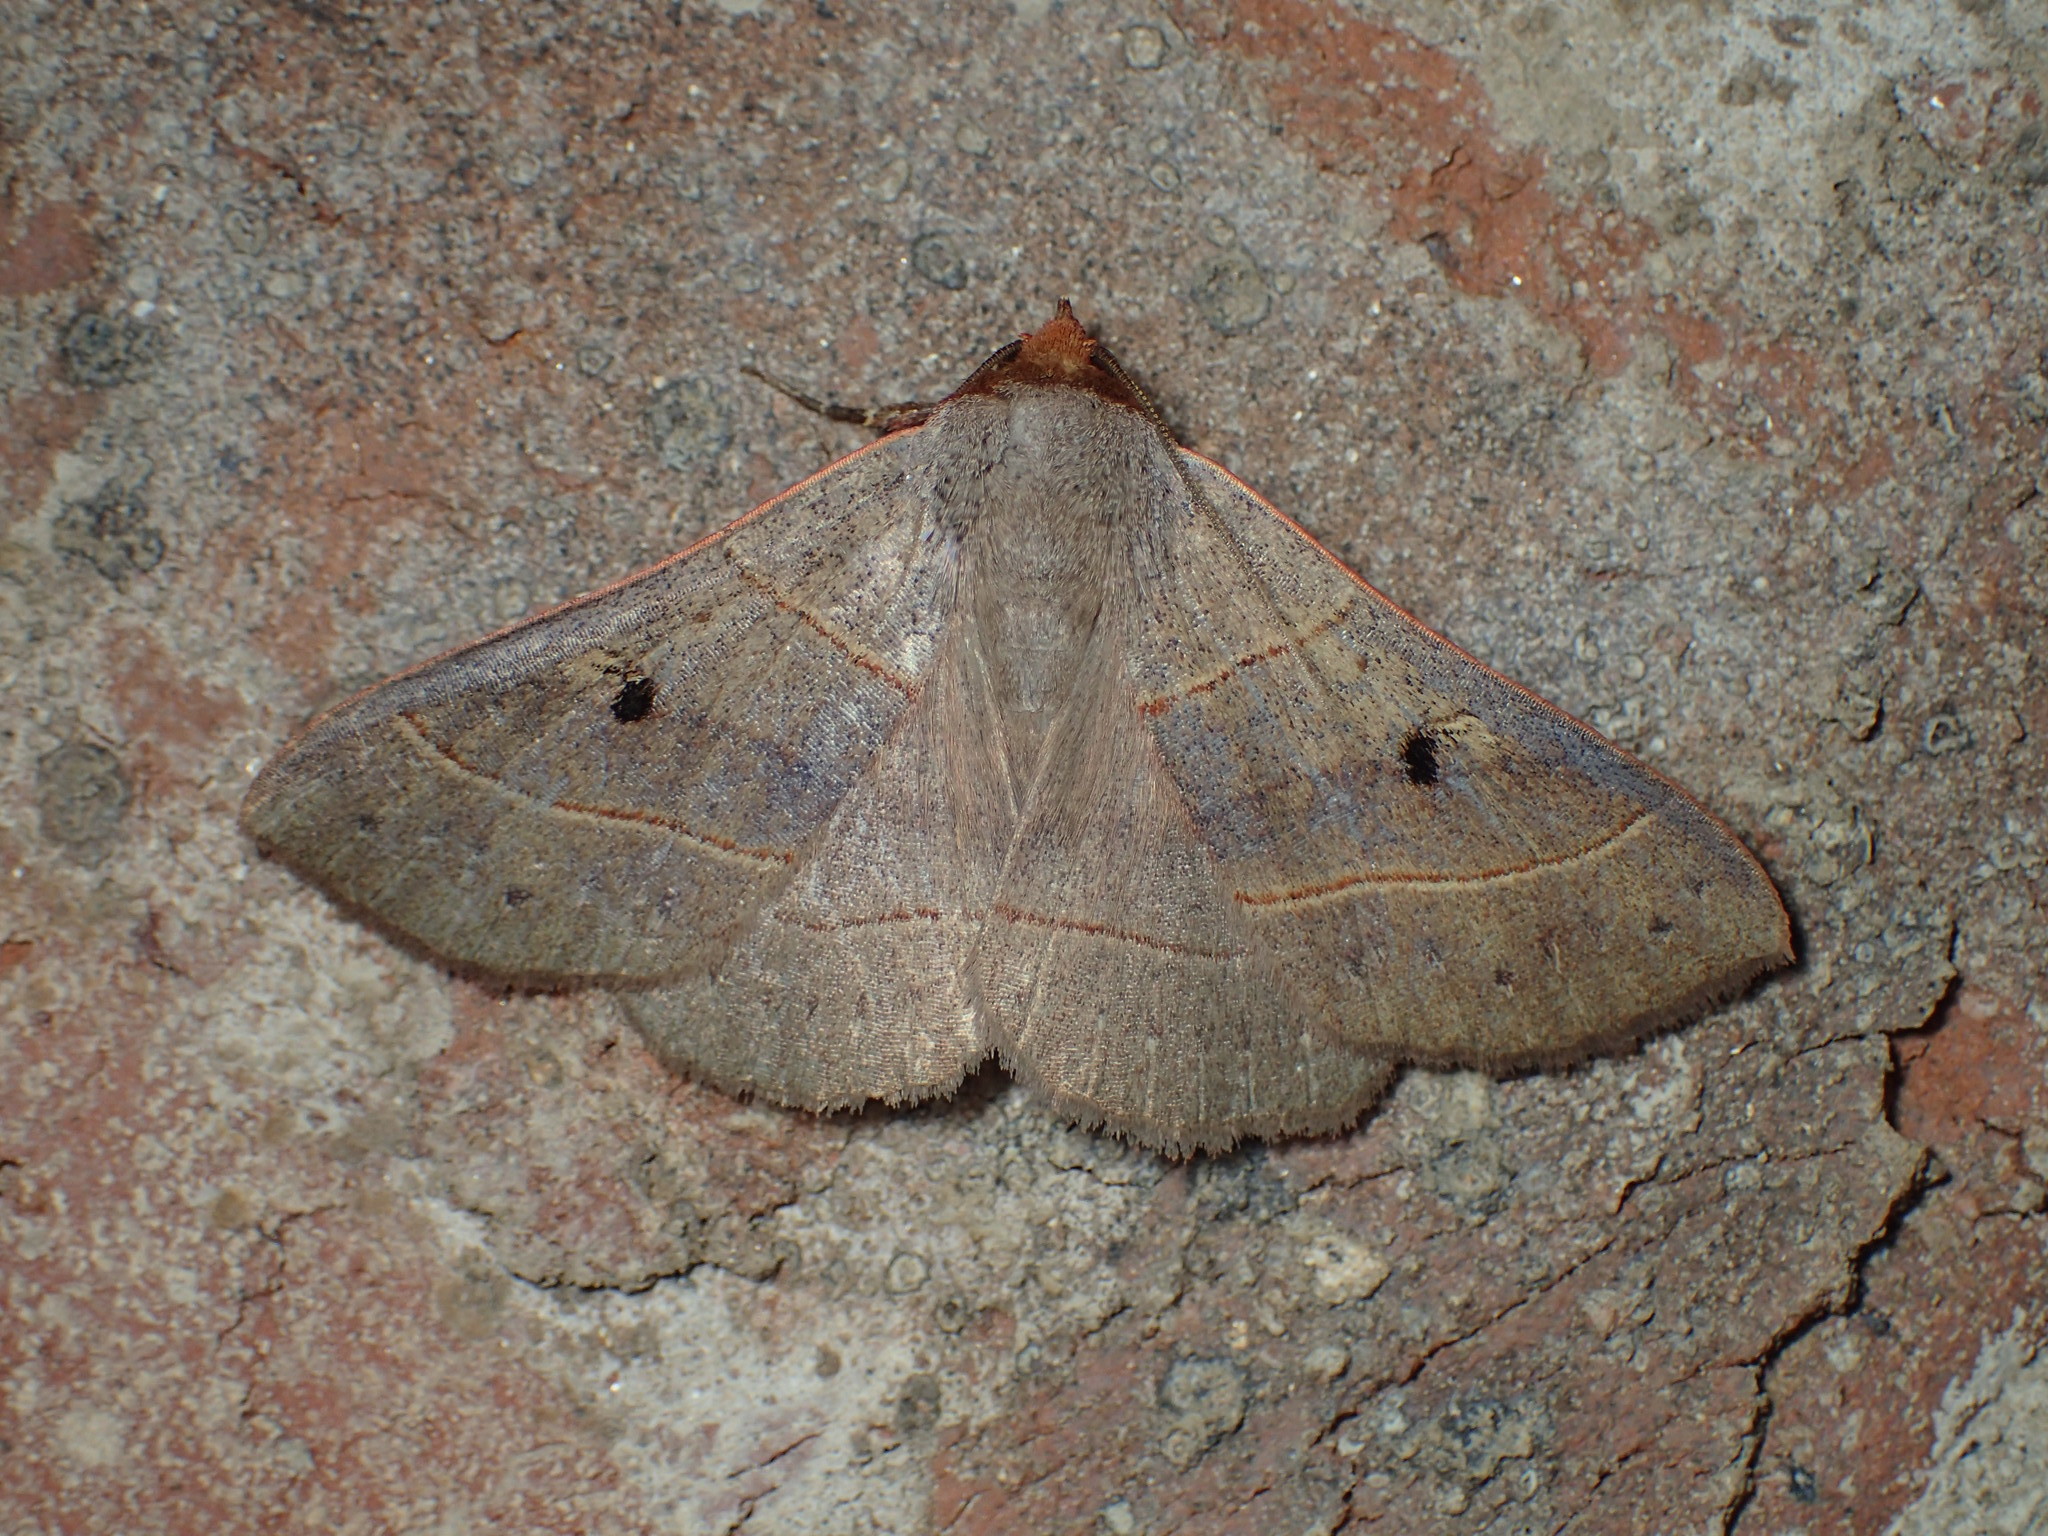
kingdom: Animalia
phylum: Arthropoda
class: Insecta
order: Lepidoptera
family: Erebidae
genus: Panopoda
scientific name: Panopoda rufimargo
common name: Red-lined panopoda moth
